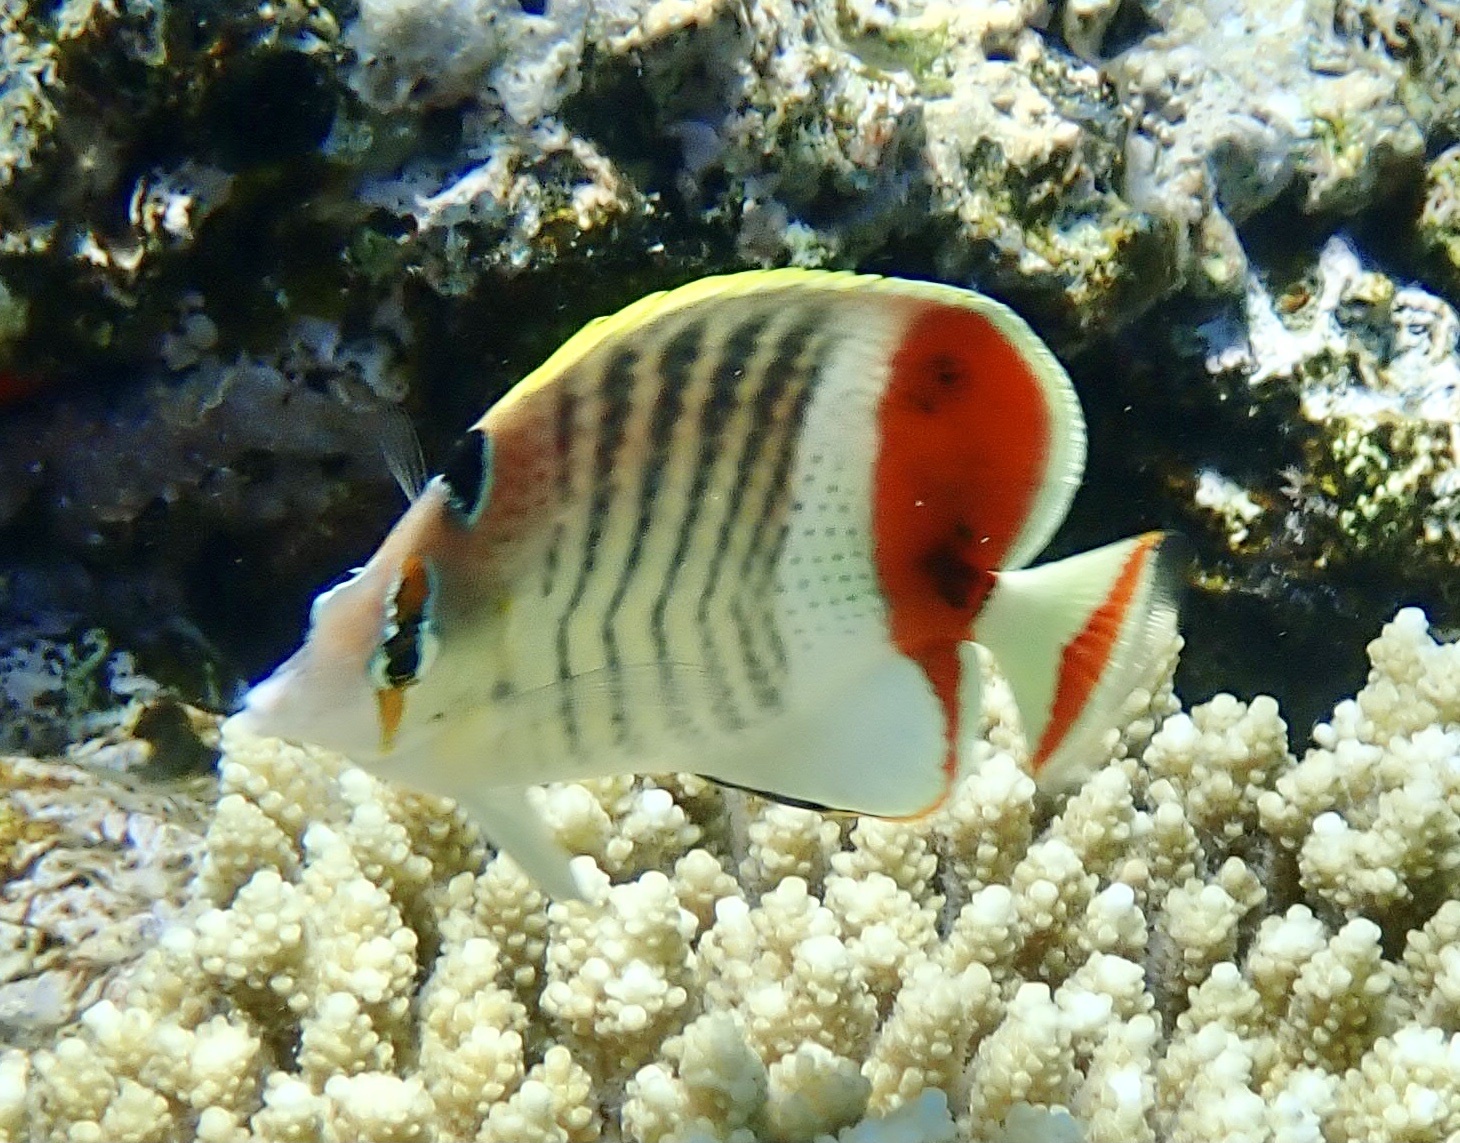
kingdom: Animalia
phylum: Chordata
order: Perciformes
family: Chaetodontidae
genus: Chaetodon
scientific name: Chaetodon paucifasciatus
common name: Crown butterflyfish
